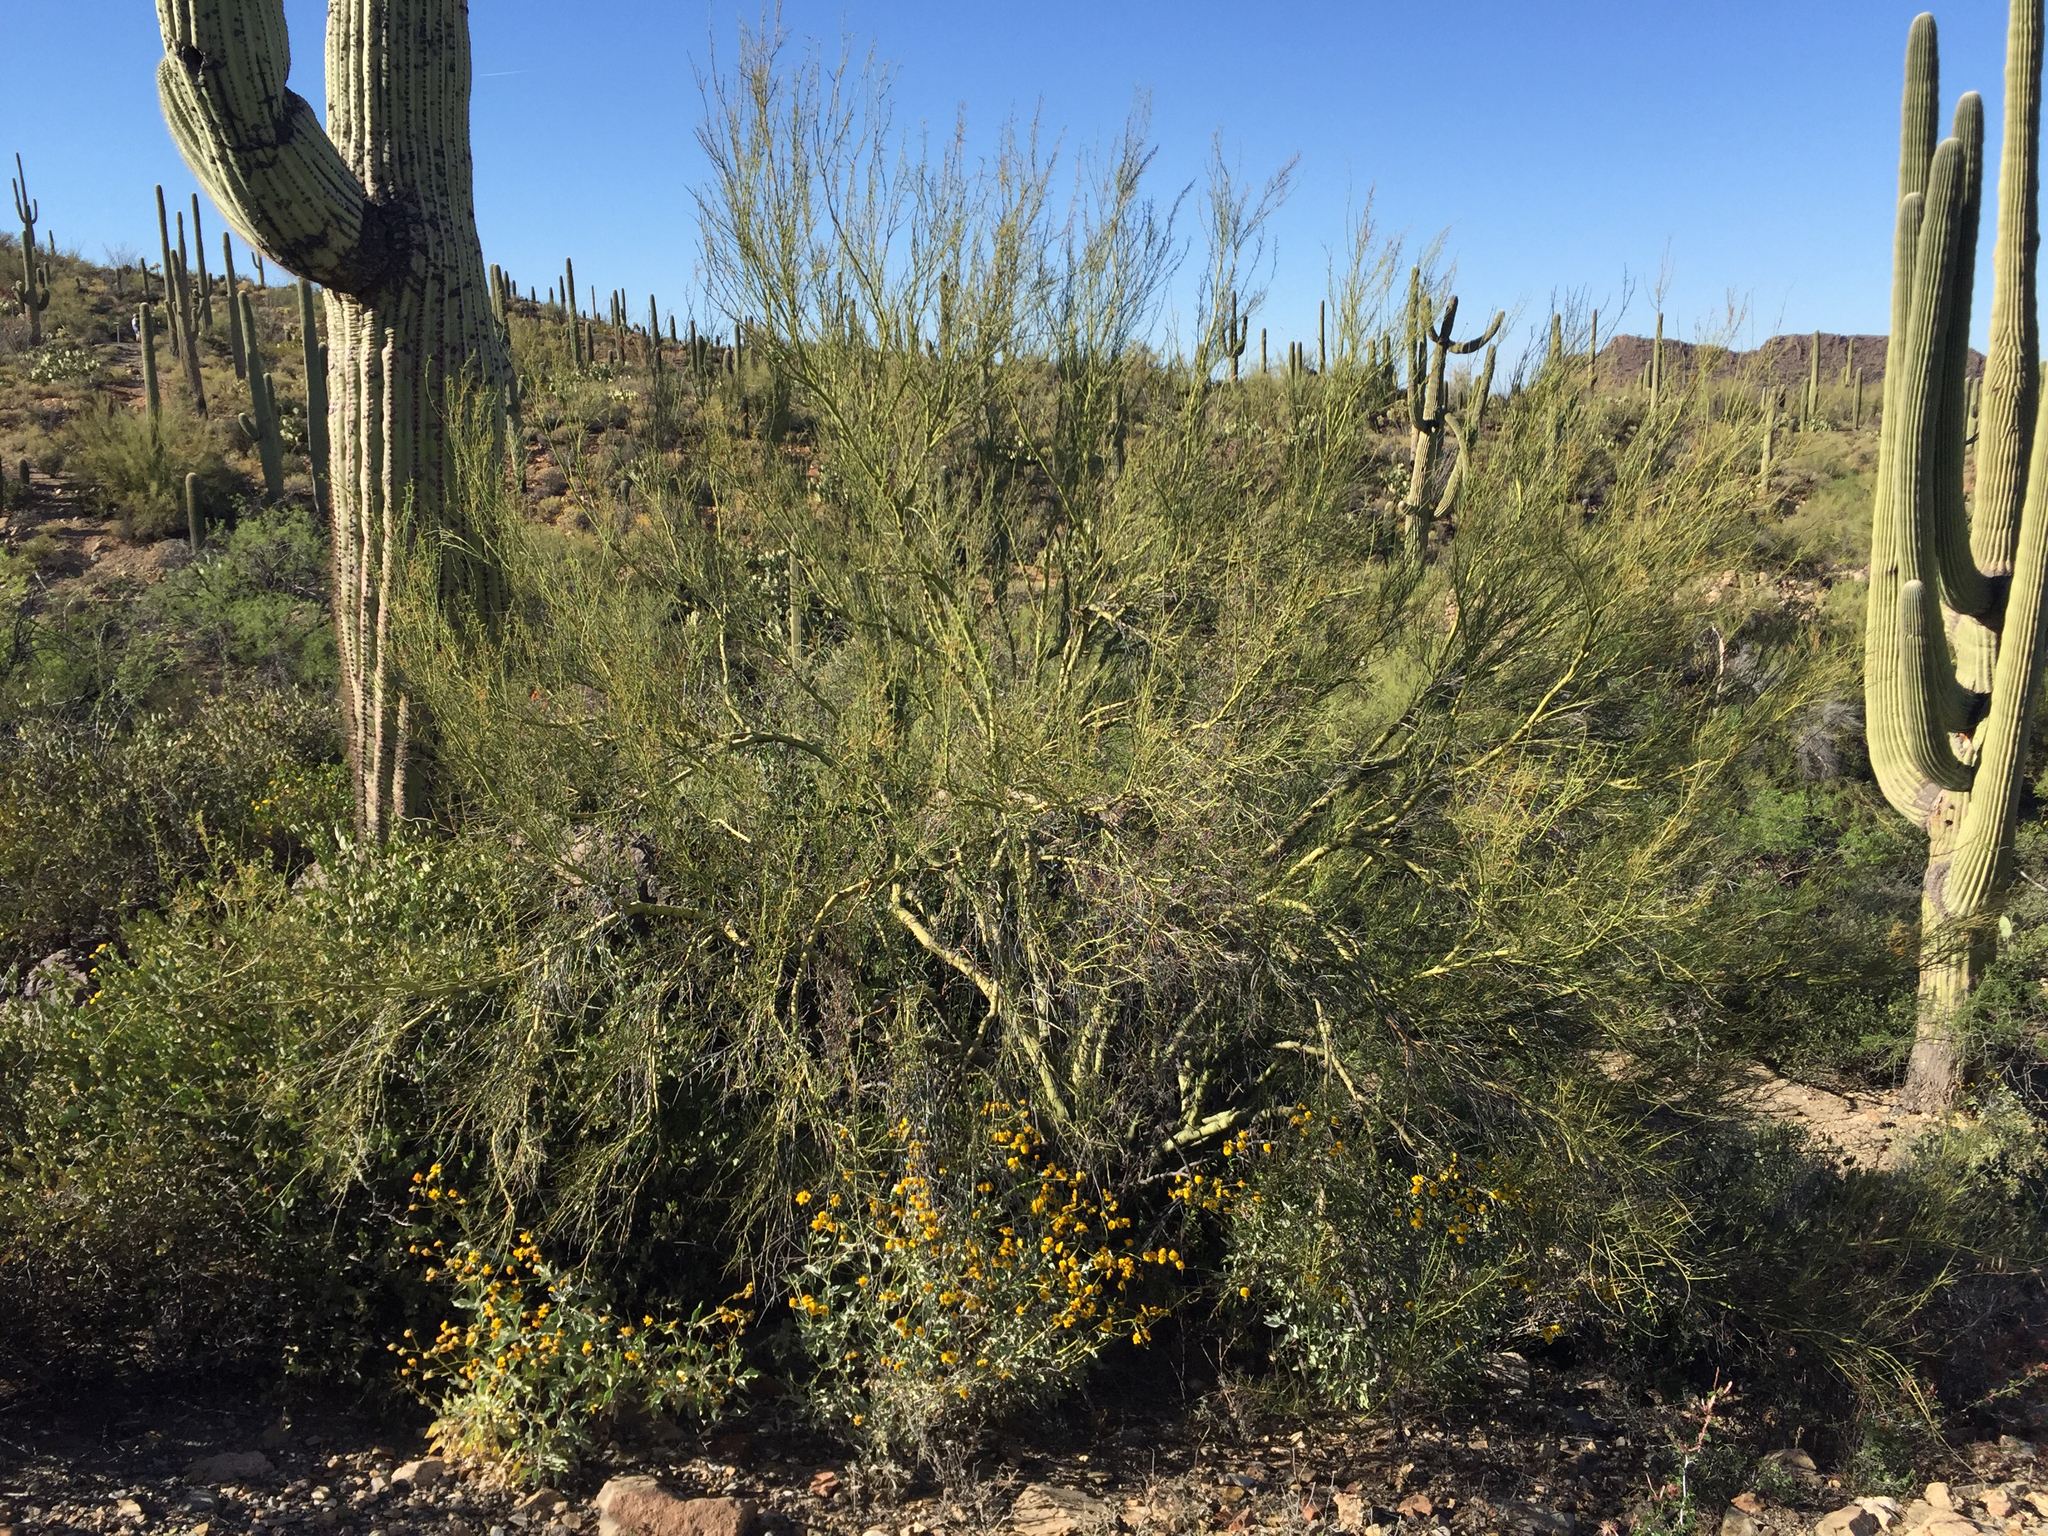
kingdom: Plantae
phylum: Tracheophyta
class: Magnoliopsida
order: Fabales
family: Fabaceae
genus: Parkinsonia
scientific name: Parkinsonia microphylla
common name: Yellow paloverde
